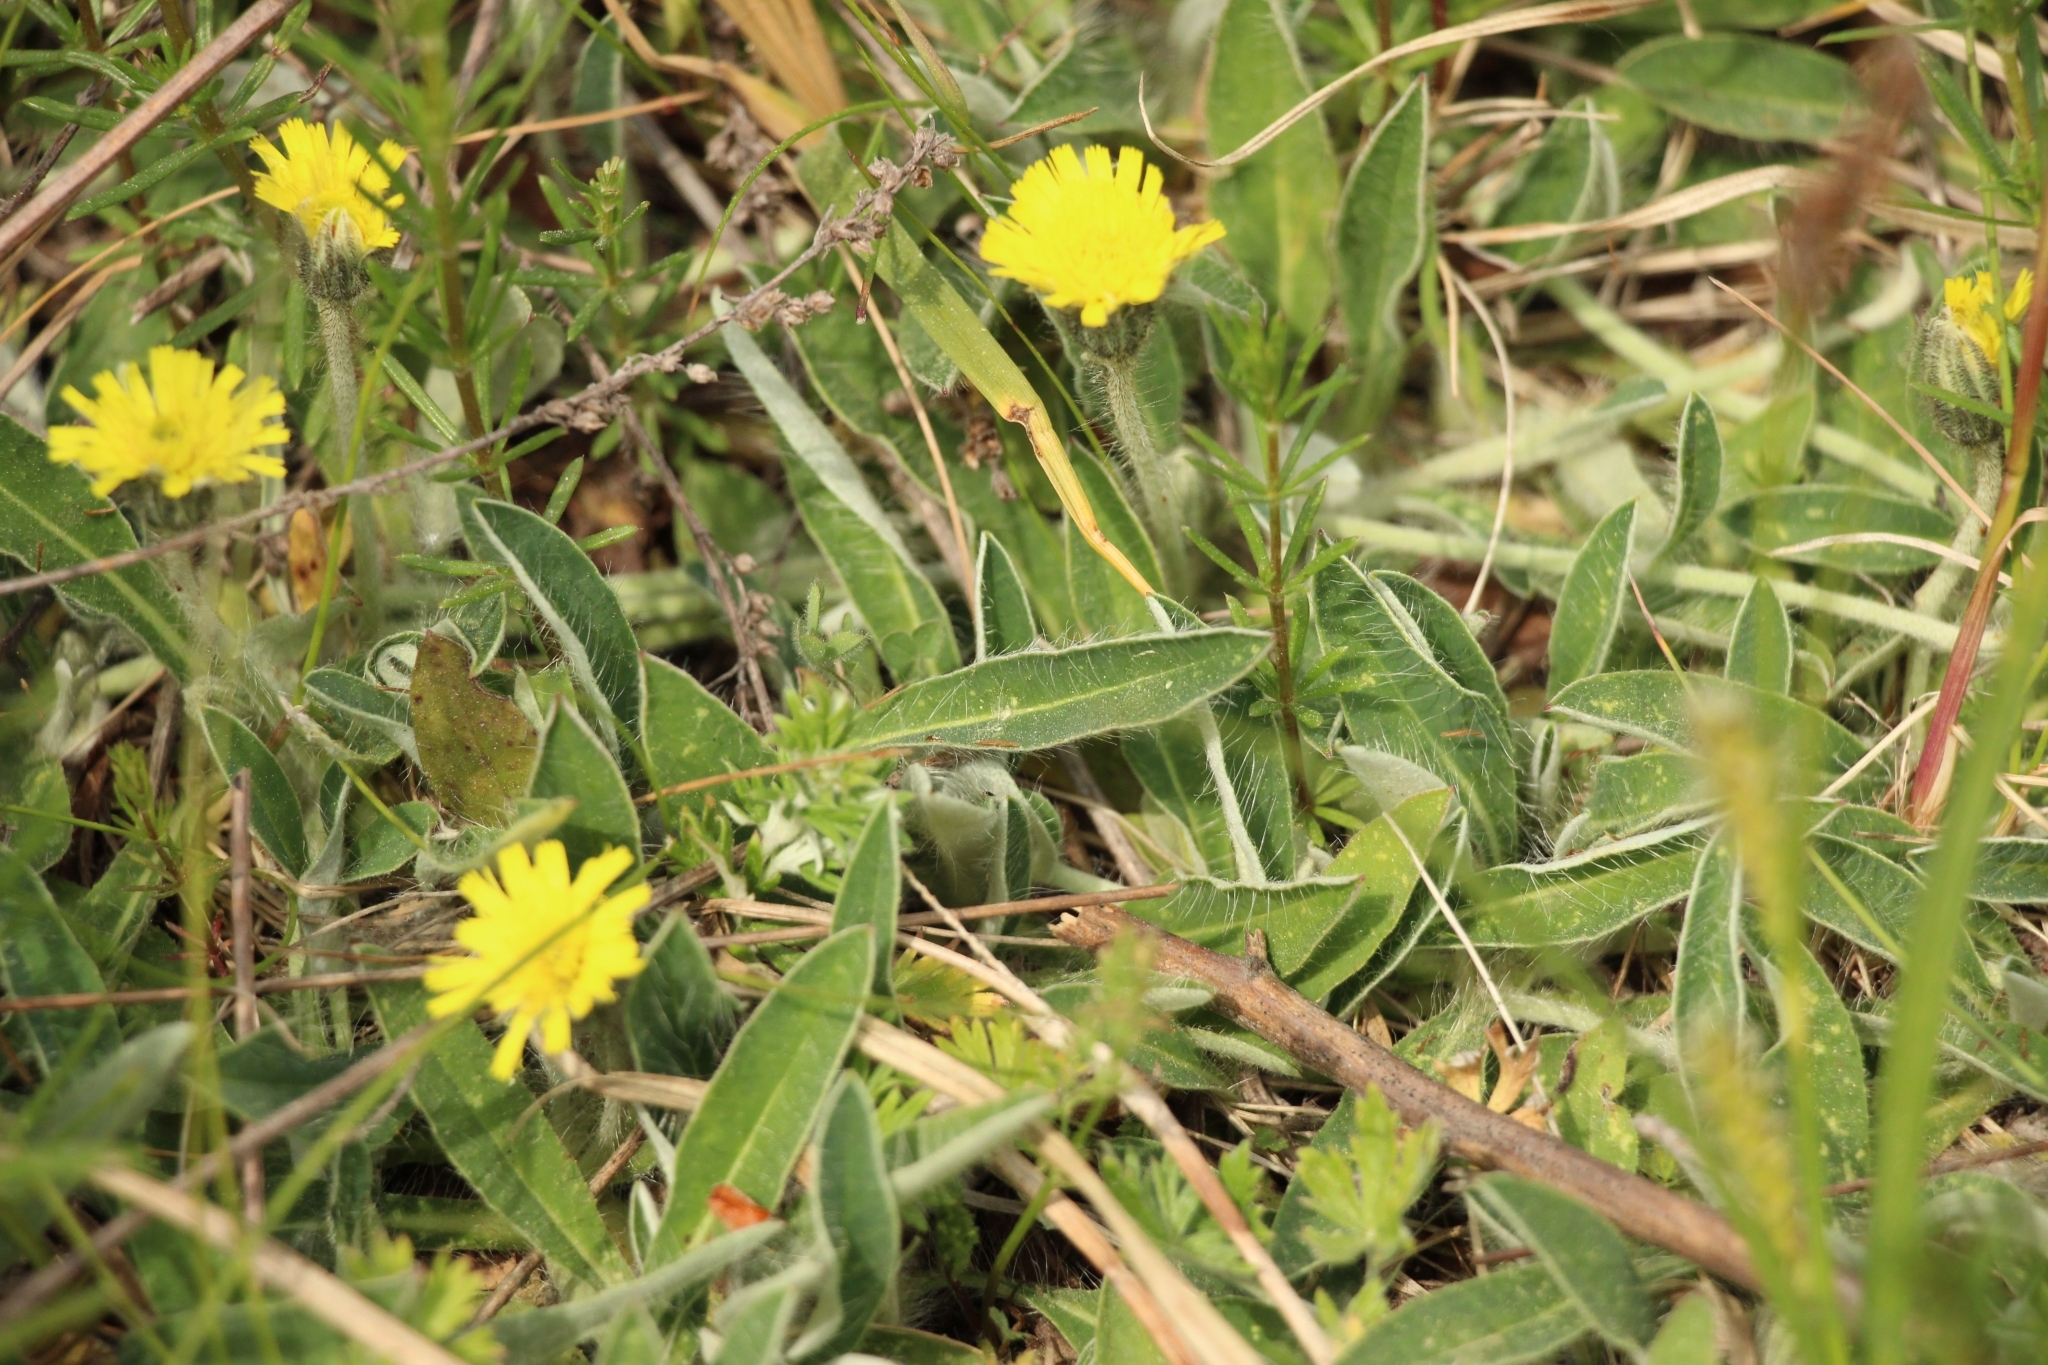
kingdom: Plantae
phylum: Tracheophyta
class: Magnoliopsida
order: Asterales
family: Asteraceae
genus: Pilosella
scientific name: Pilosella officinarum
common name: Mouse-ear hawkweed
